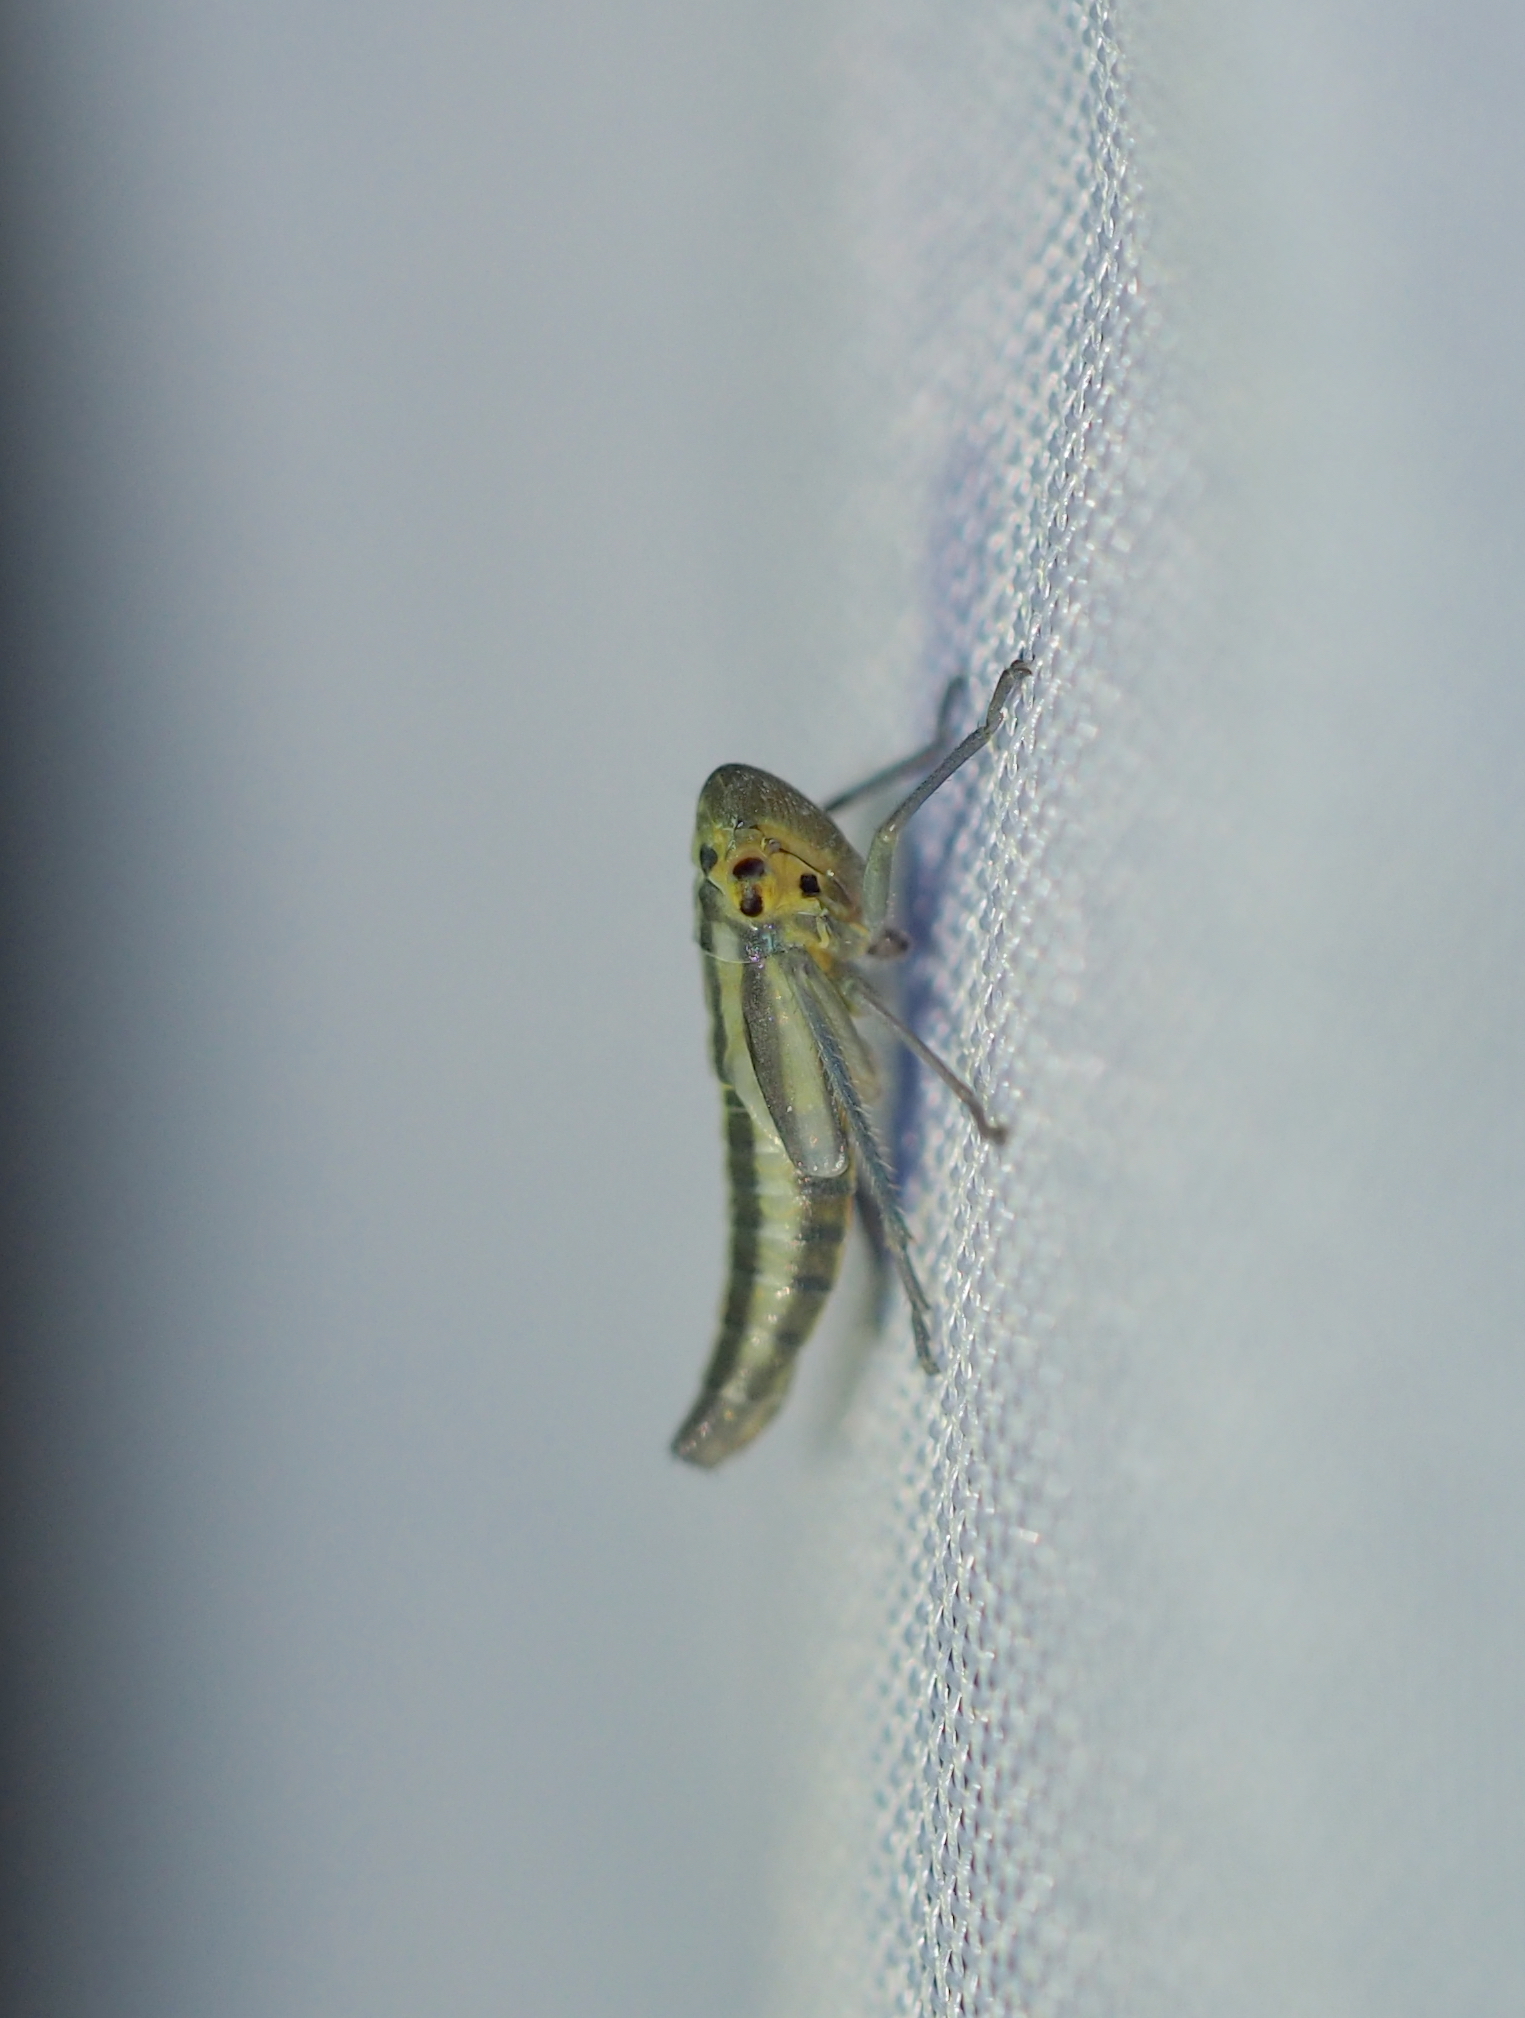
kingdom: Animalia
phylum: Arthropoda
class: Insecta
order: Hemiptera
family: Cicadellidae
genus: Cicadella
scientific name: Cicadella viridis
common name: Leafhopper
